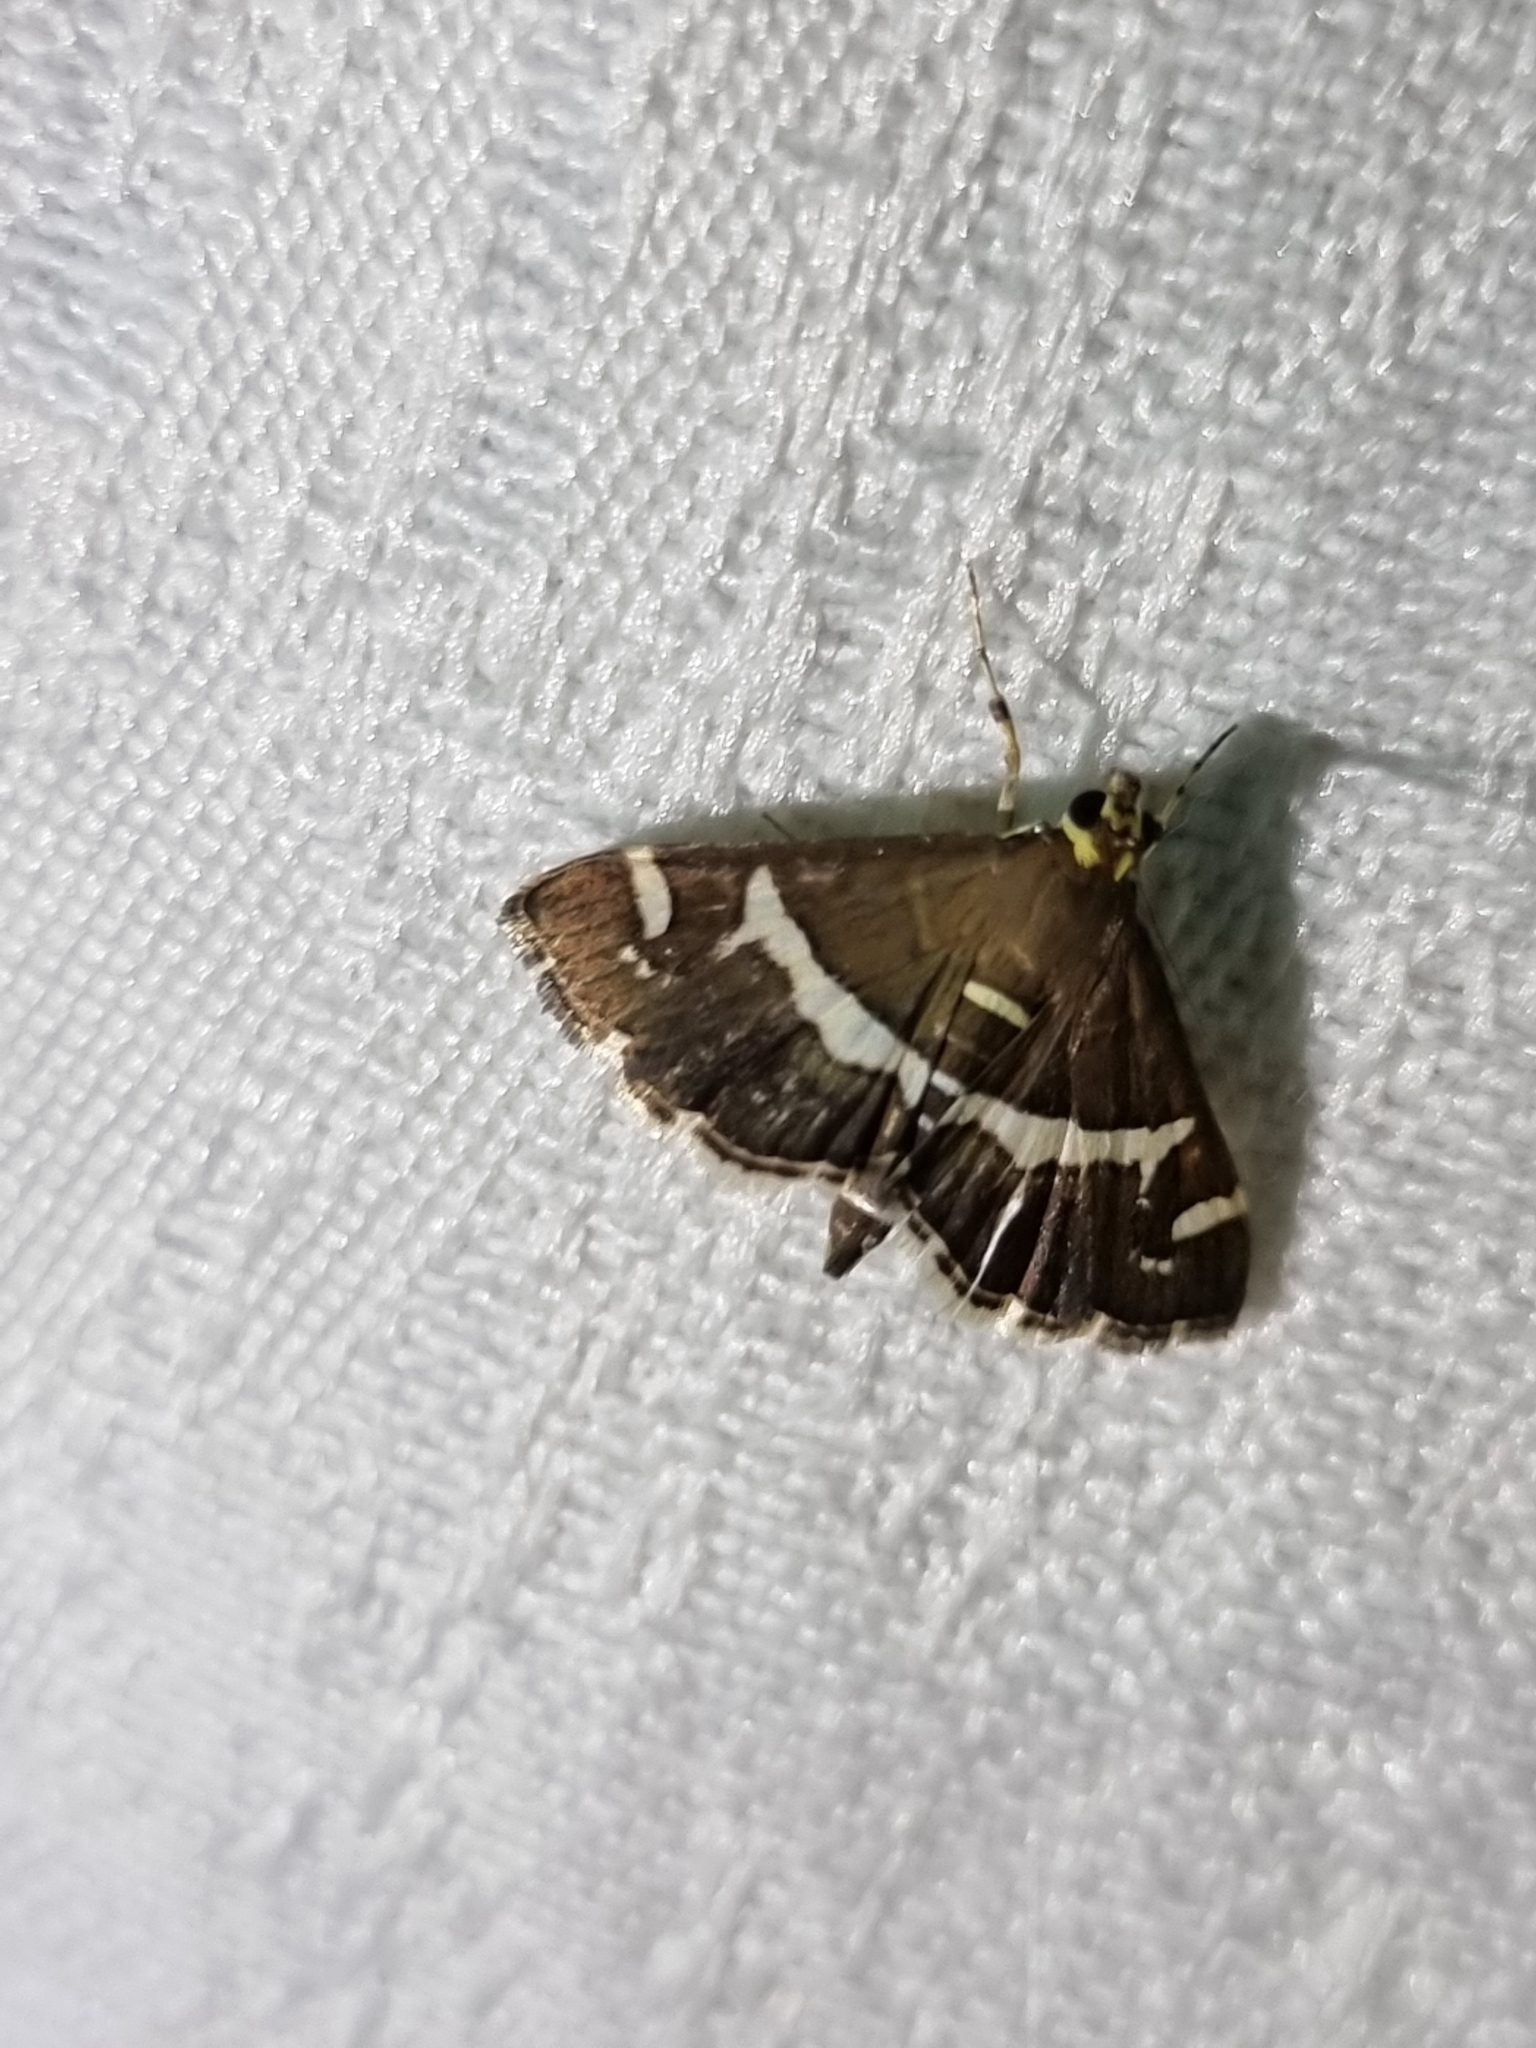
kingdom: Animalia
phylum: Arthropoda
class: Insecta
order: Lepidoptera
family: Crambidae
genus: Spoladea
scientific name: Spoladea recurvalis
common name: Beet webworm moth
